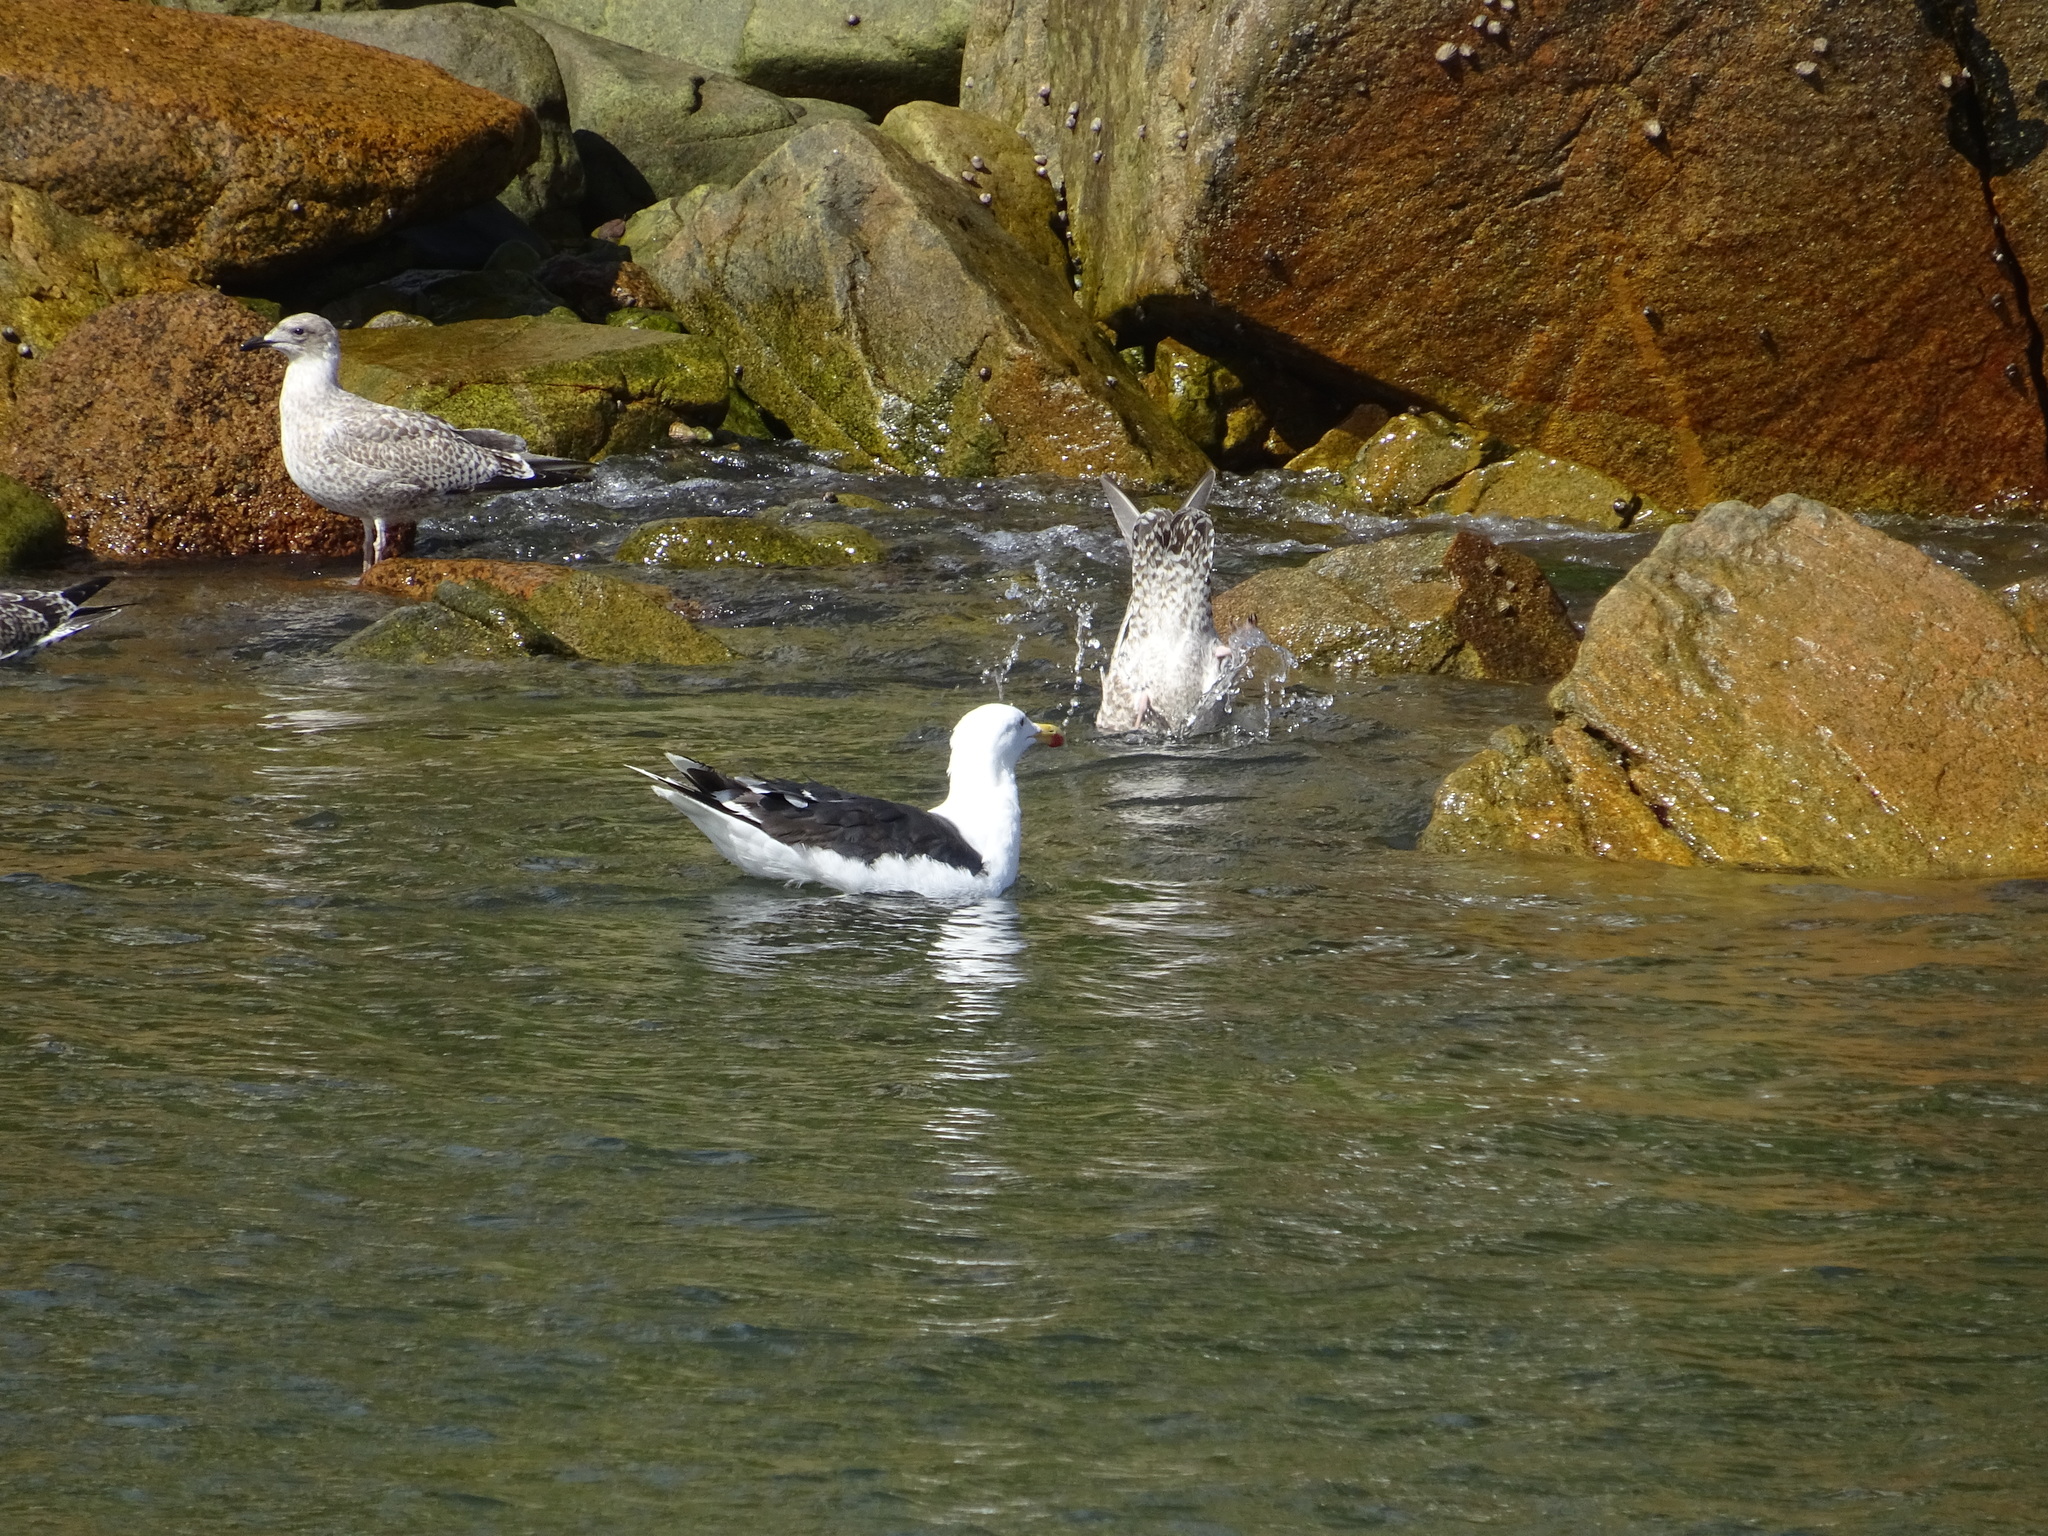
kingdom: Animalia
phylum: Chordata
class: Aves
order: Charadriiformes
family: Laridae
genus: Larus
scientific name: Larus marinus
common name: Great black-backed gull
